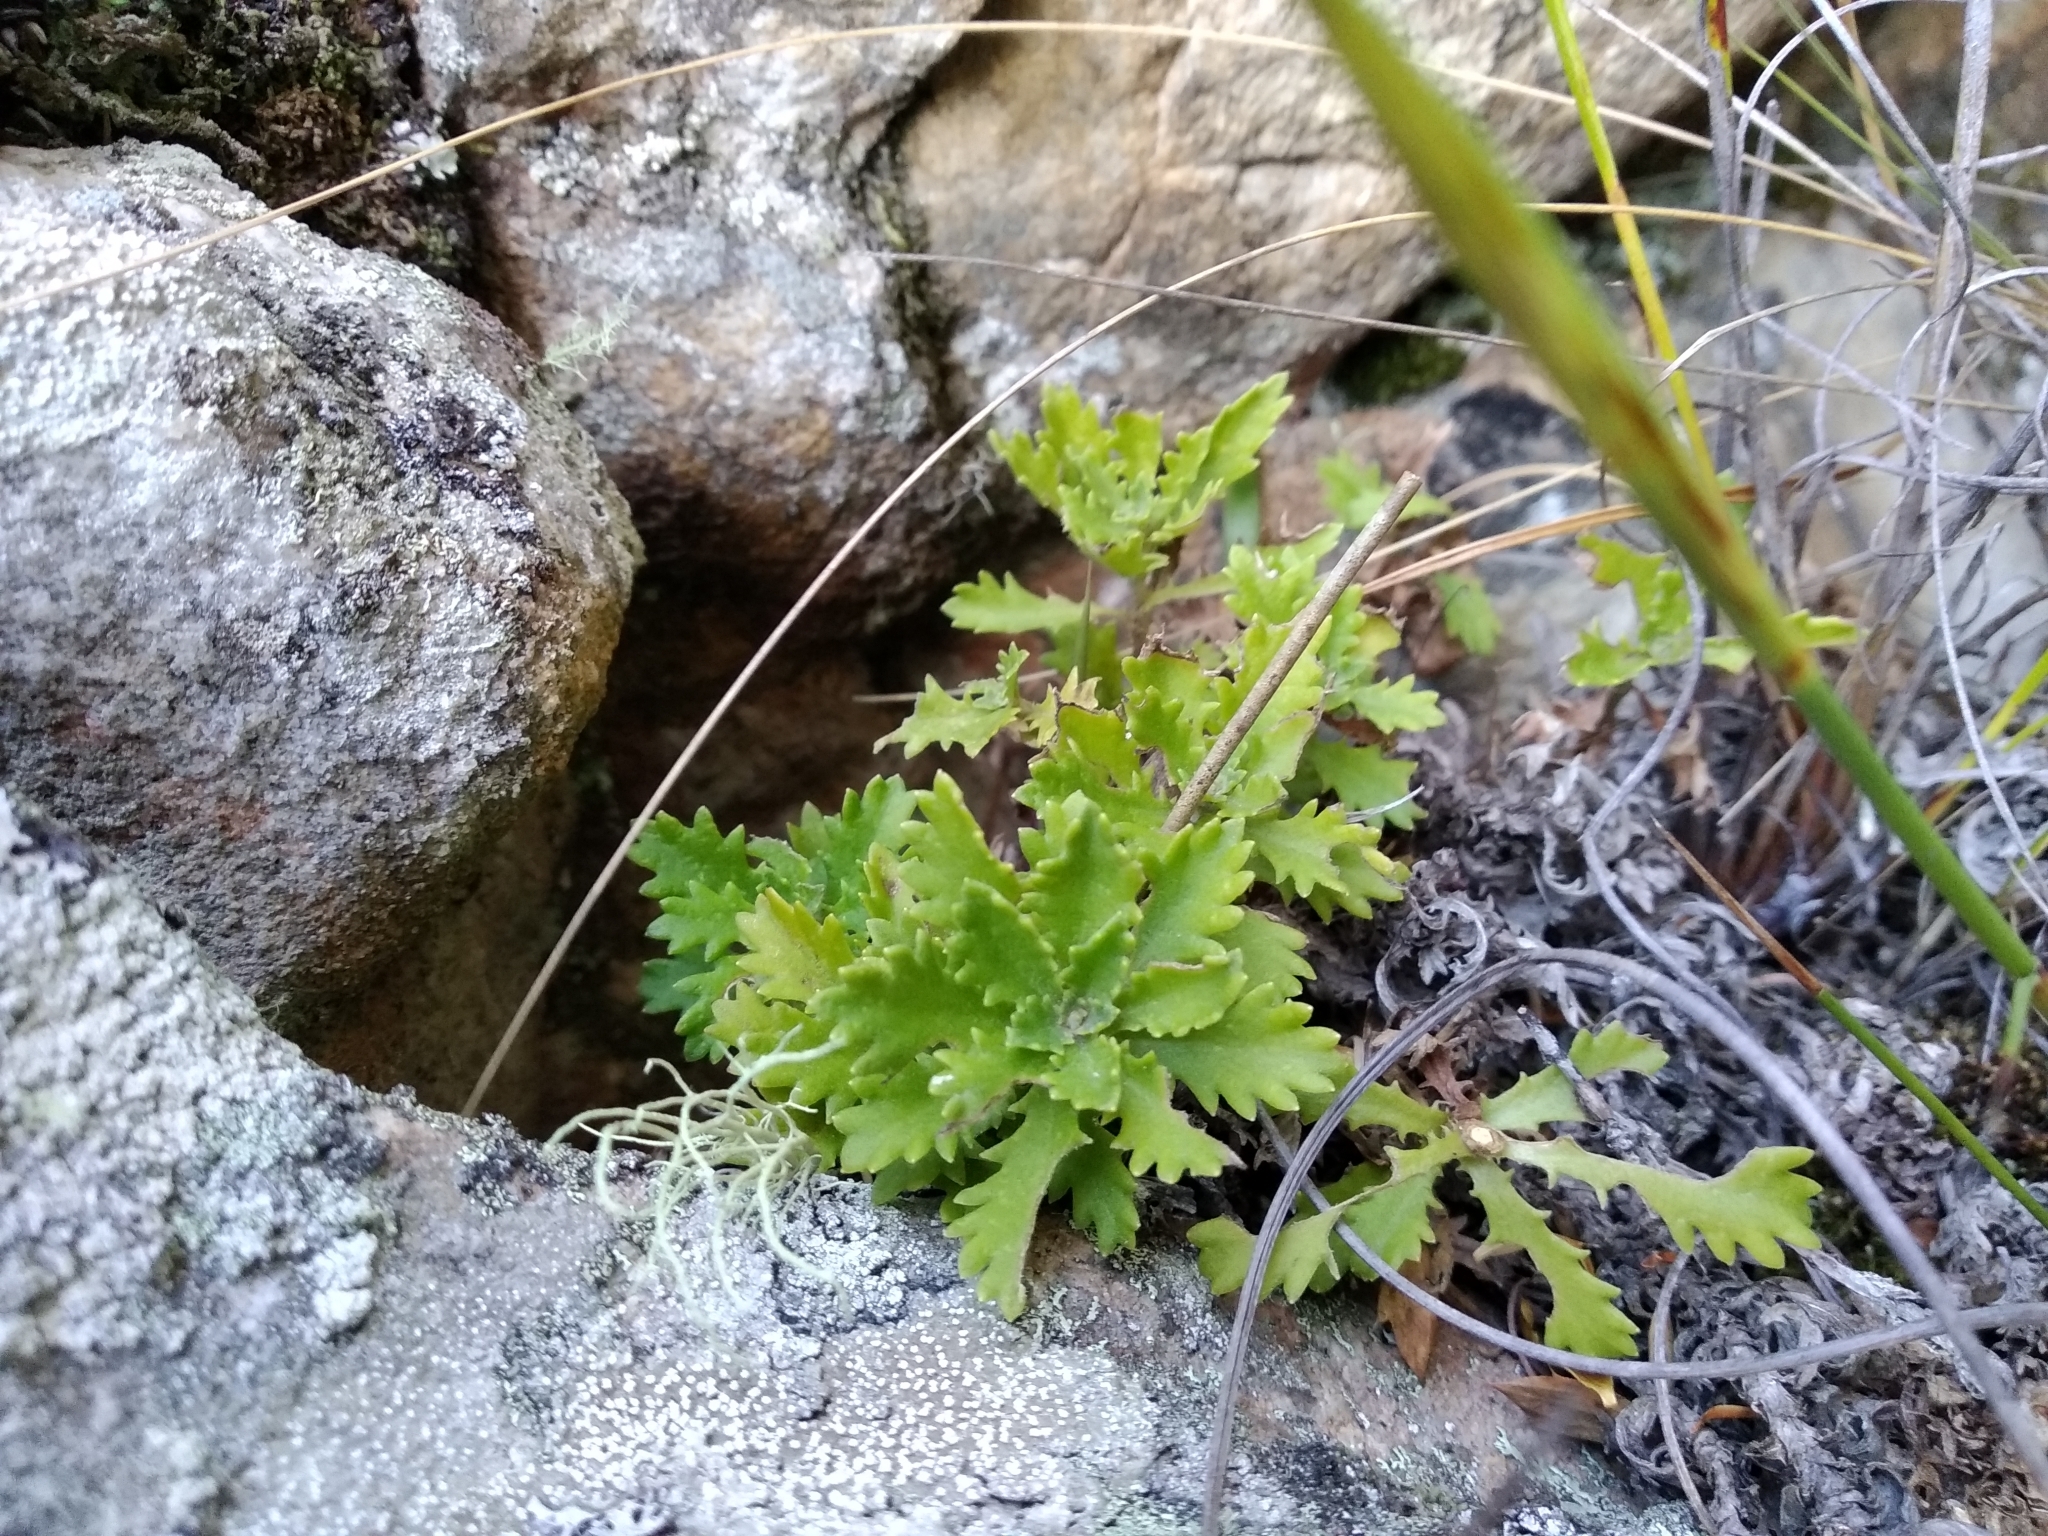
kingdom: Plantae
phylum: Tracheophyta
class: Magnoliopsida
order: Asterales
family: Asteraceae
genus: Osmitopsis
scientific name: Osmitopsis dentata
